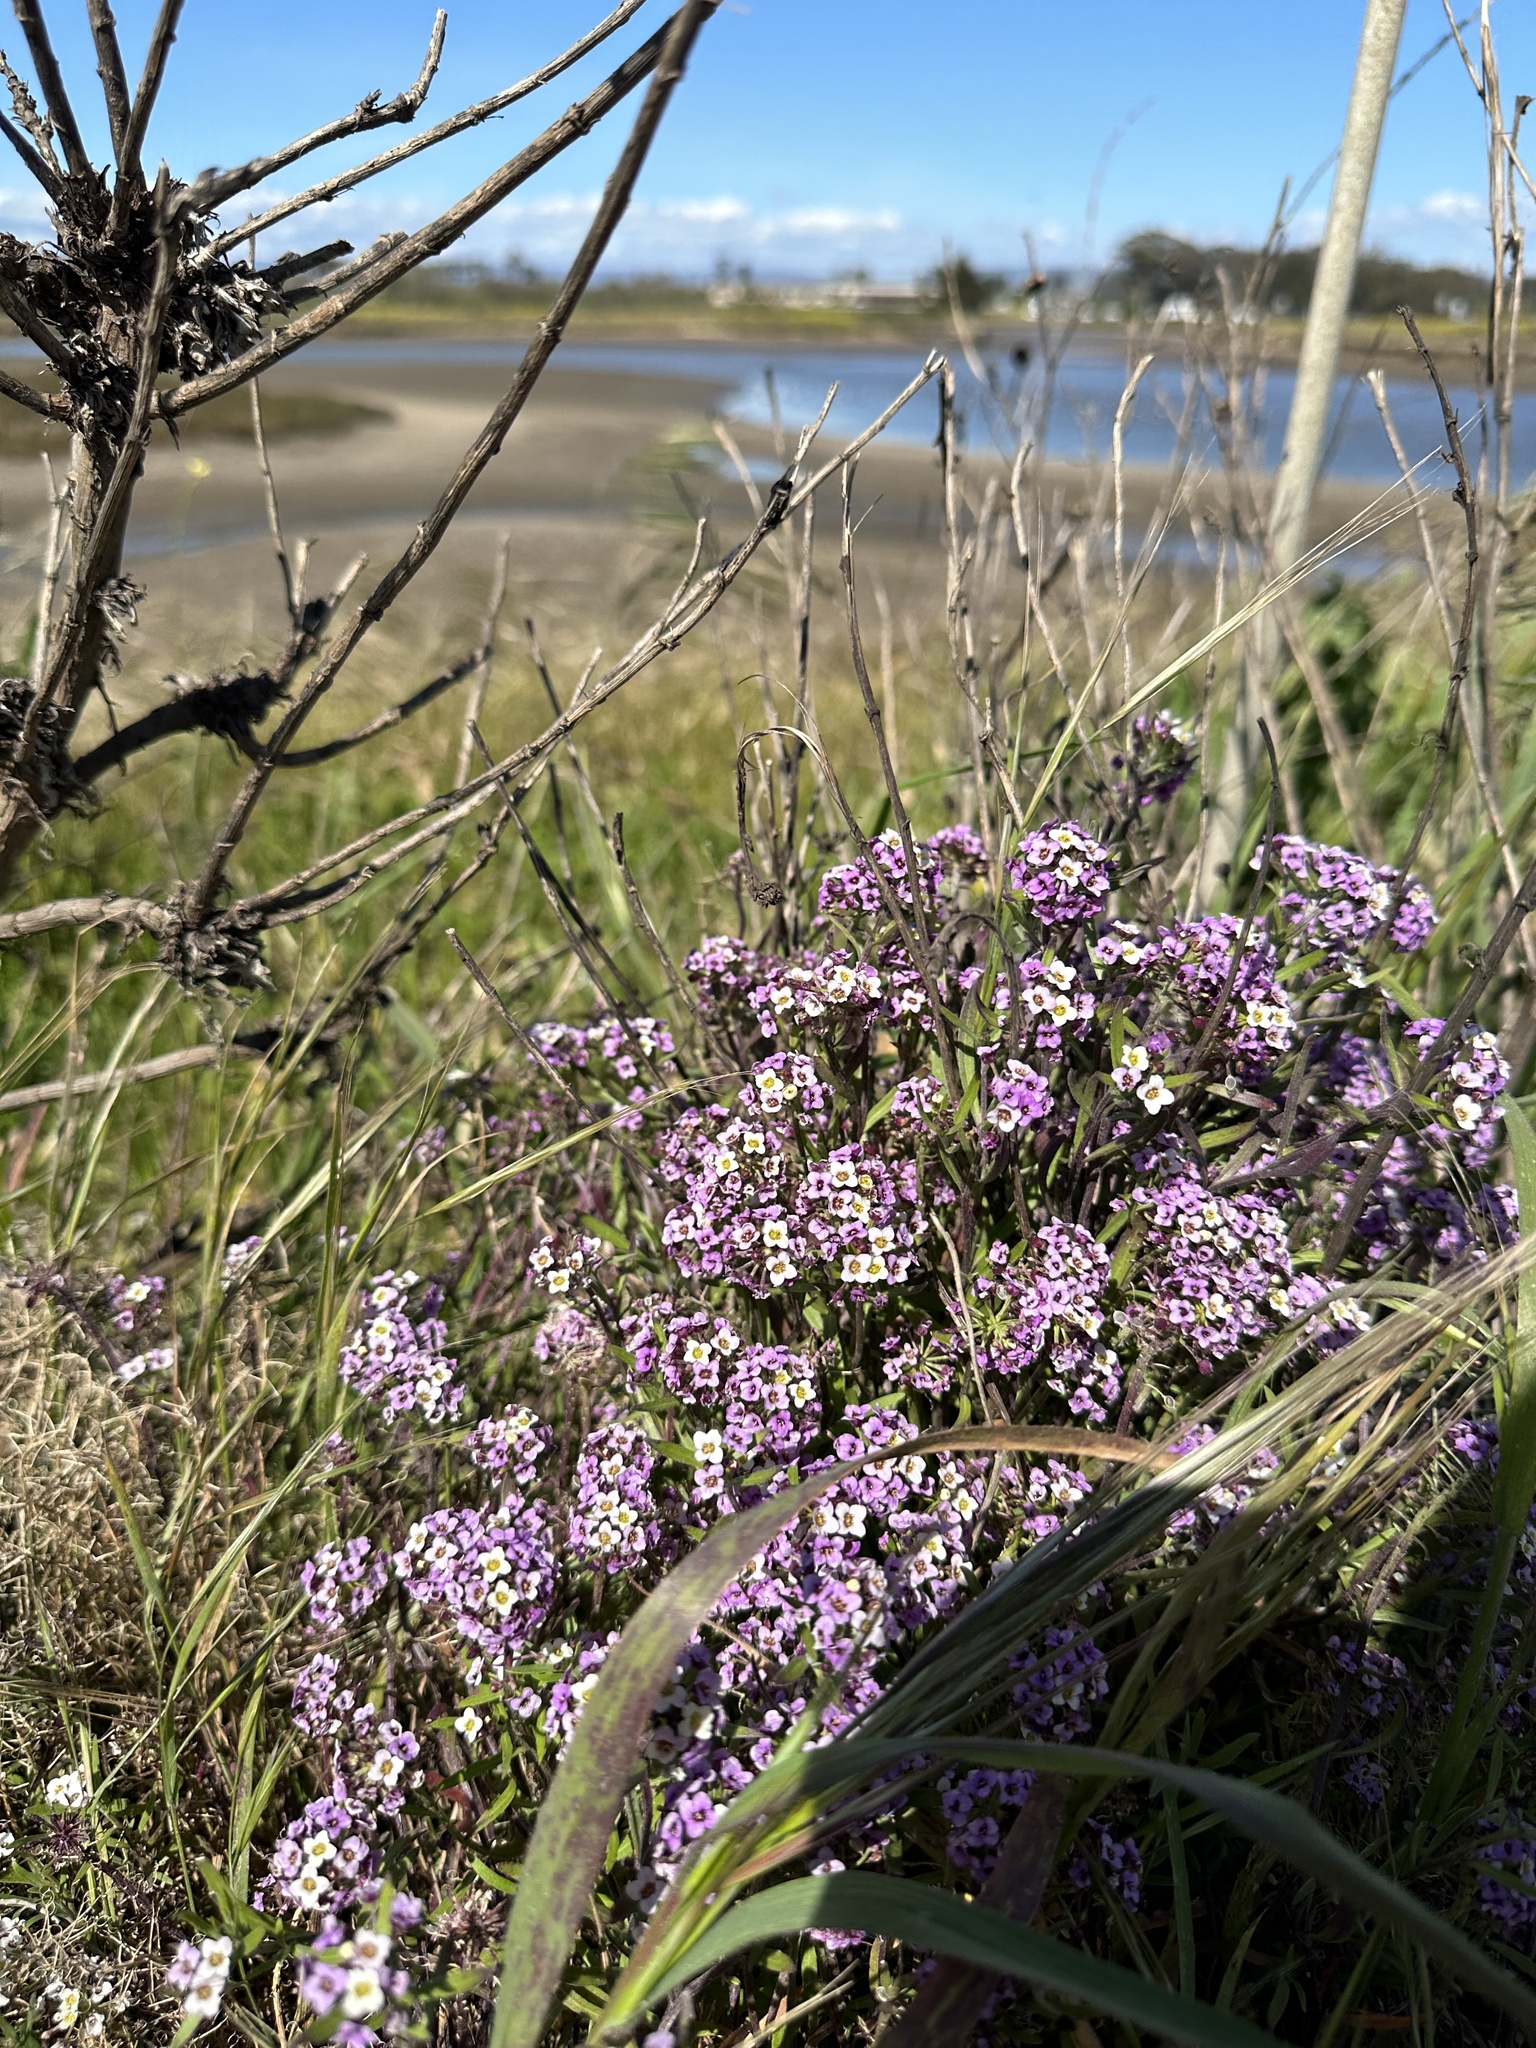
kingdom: Plantae
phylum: Tracheophyta
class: Magnoliopsida
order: Brassicales
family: Brassicaceae
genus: Lobularia
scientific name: Lobularia maritima
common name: Sweet alison
